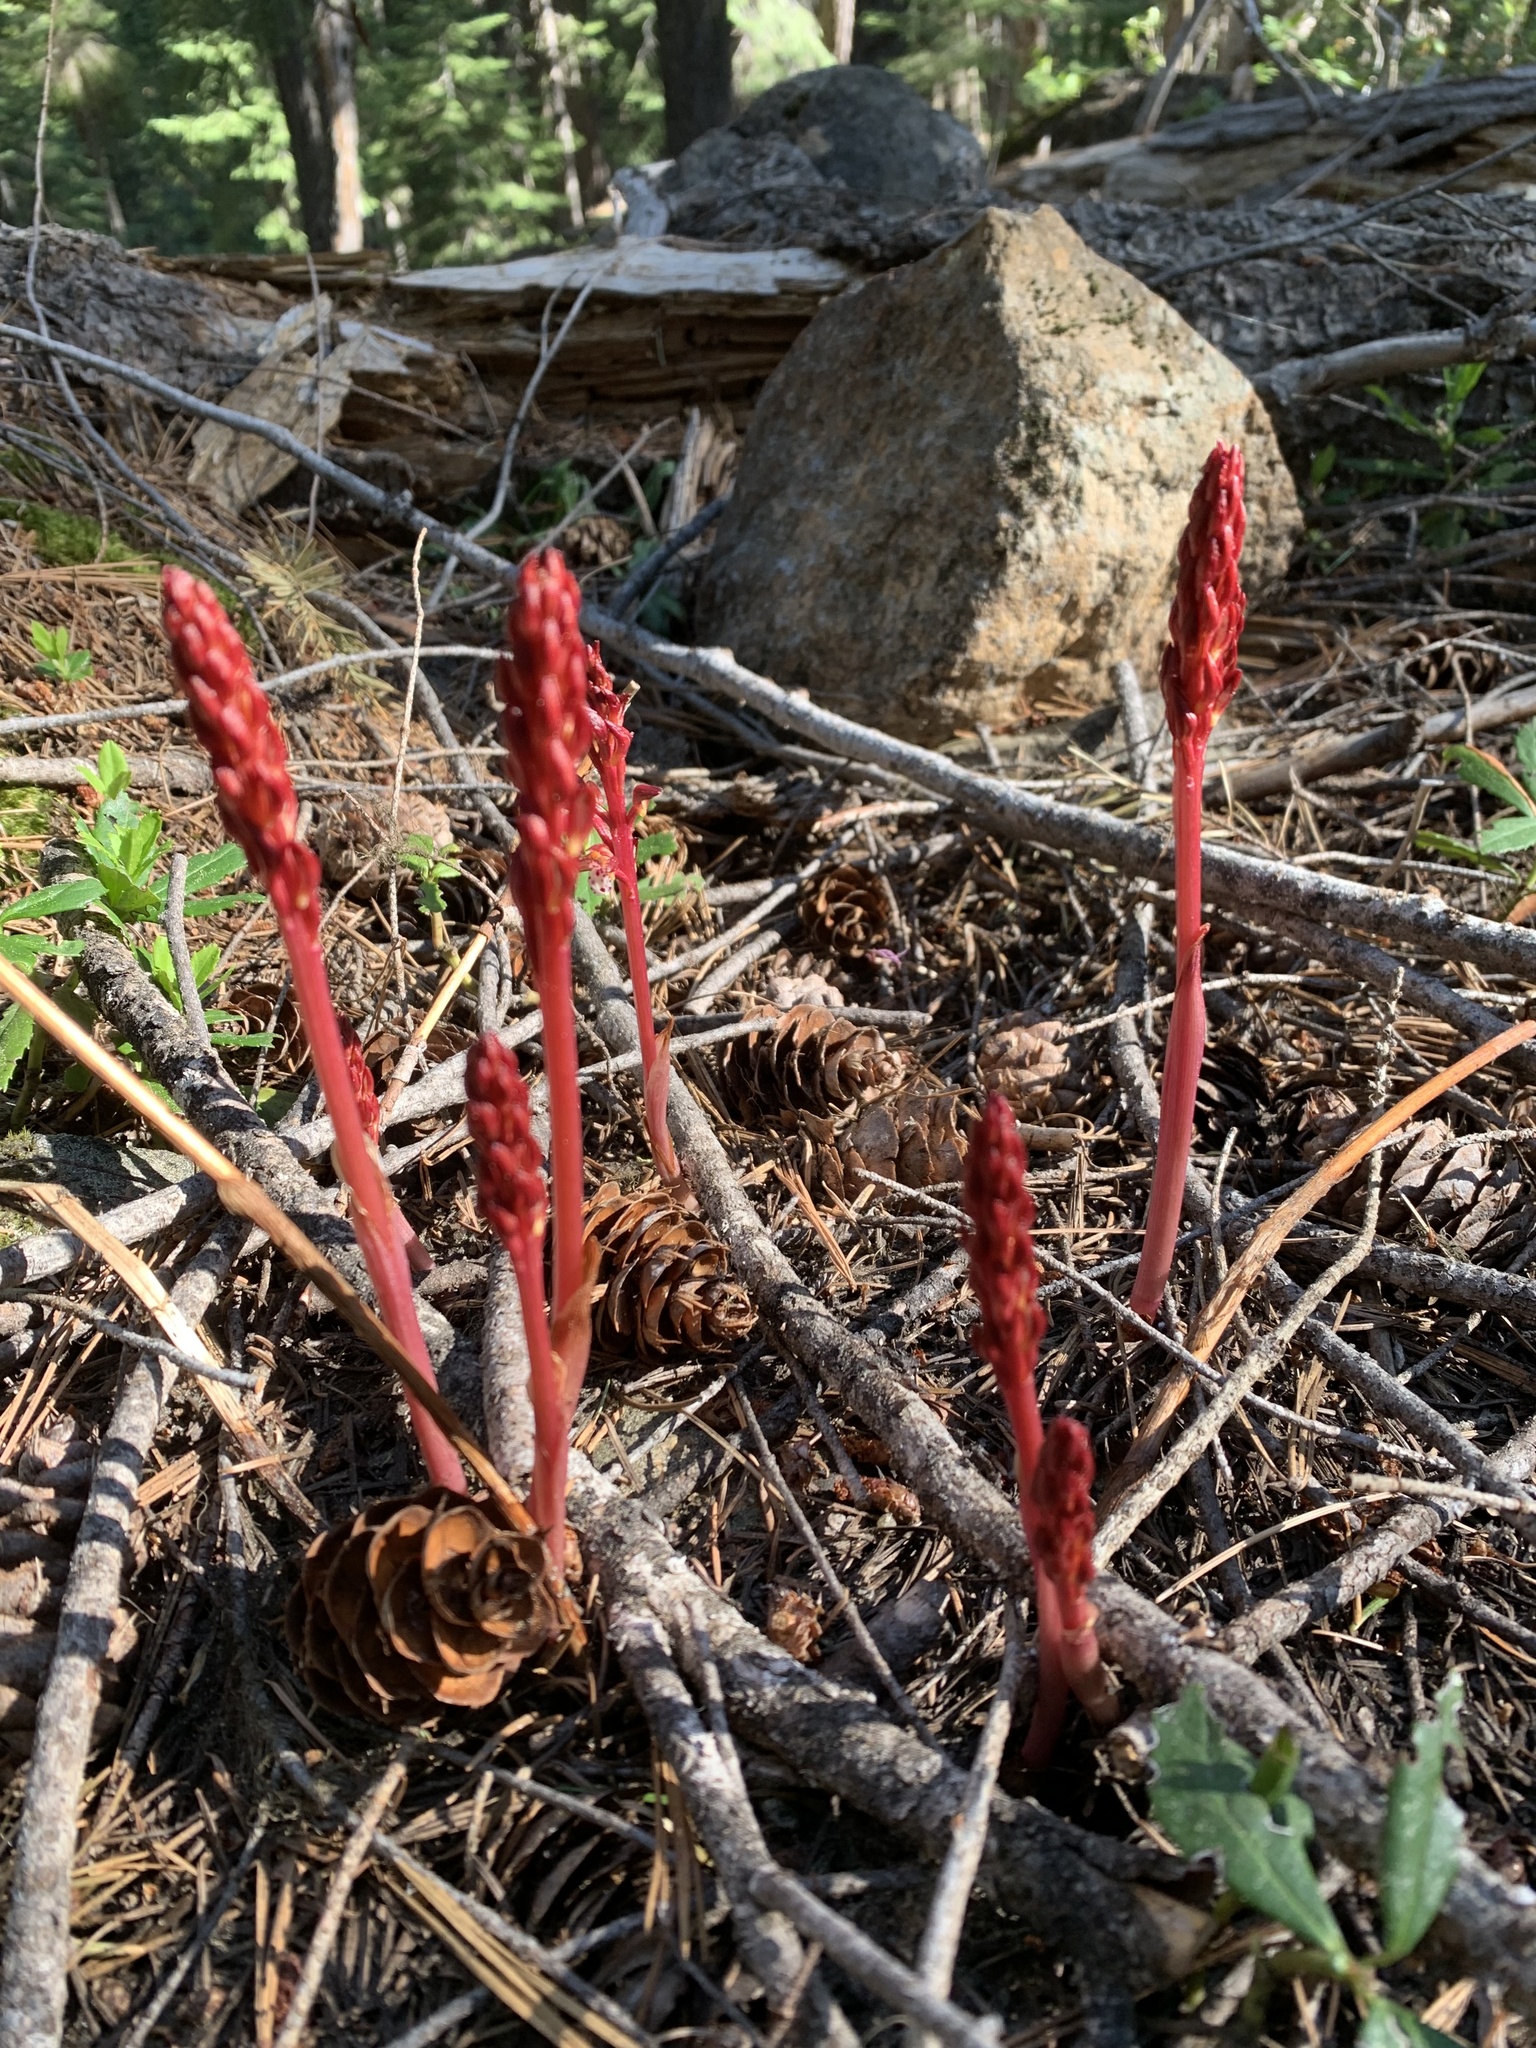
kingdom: Plantae
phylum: Tracheophyta
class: Liliopsida
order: Asparagales
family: Orchidaceae
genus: Corallorhiza
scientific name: Corallorhiza maculata
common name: Spotted coralroot
